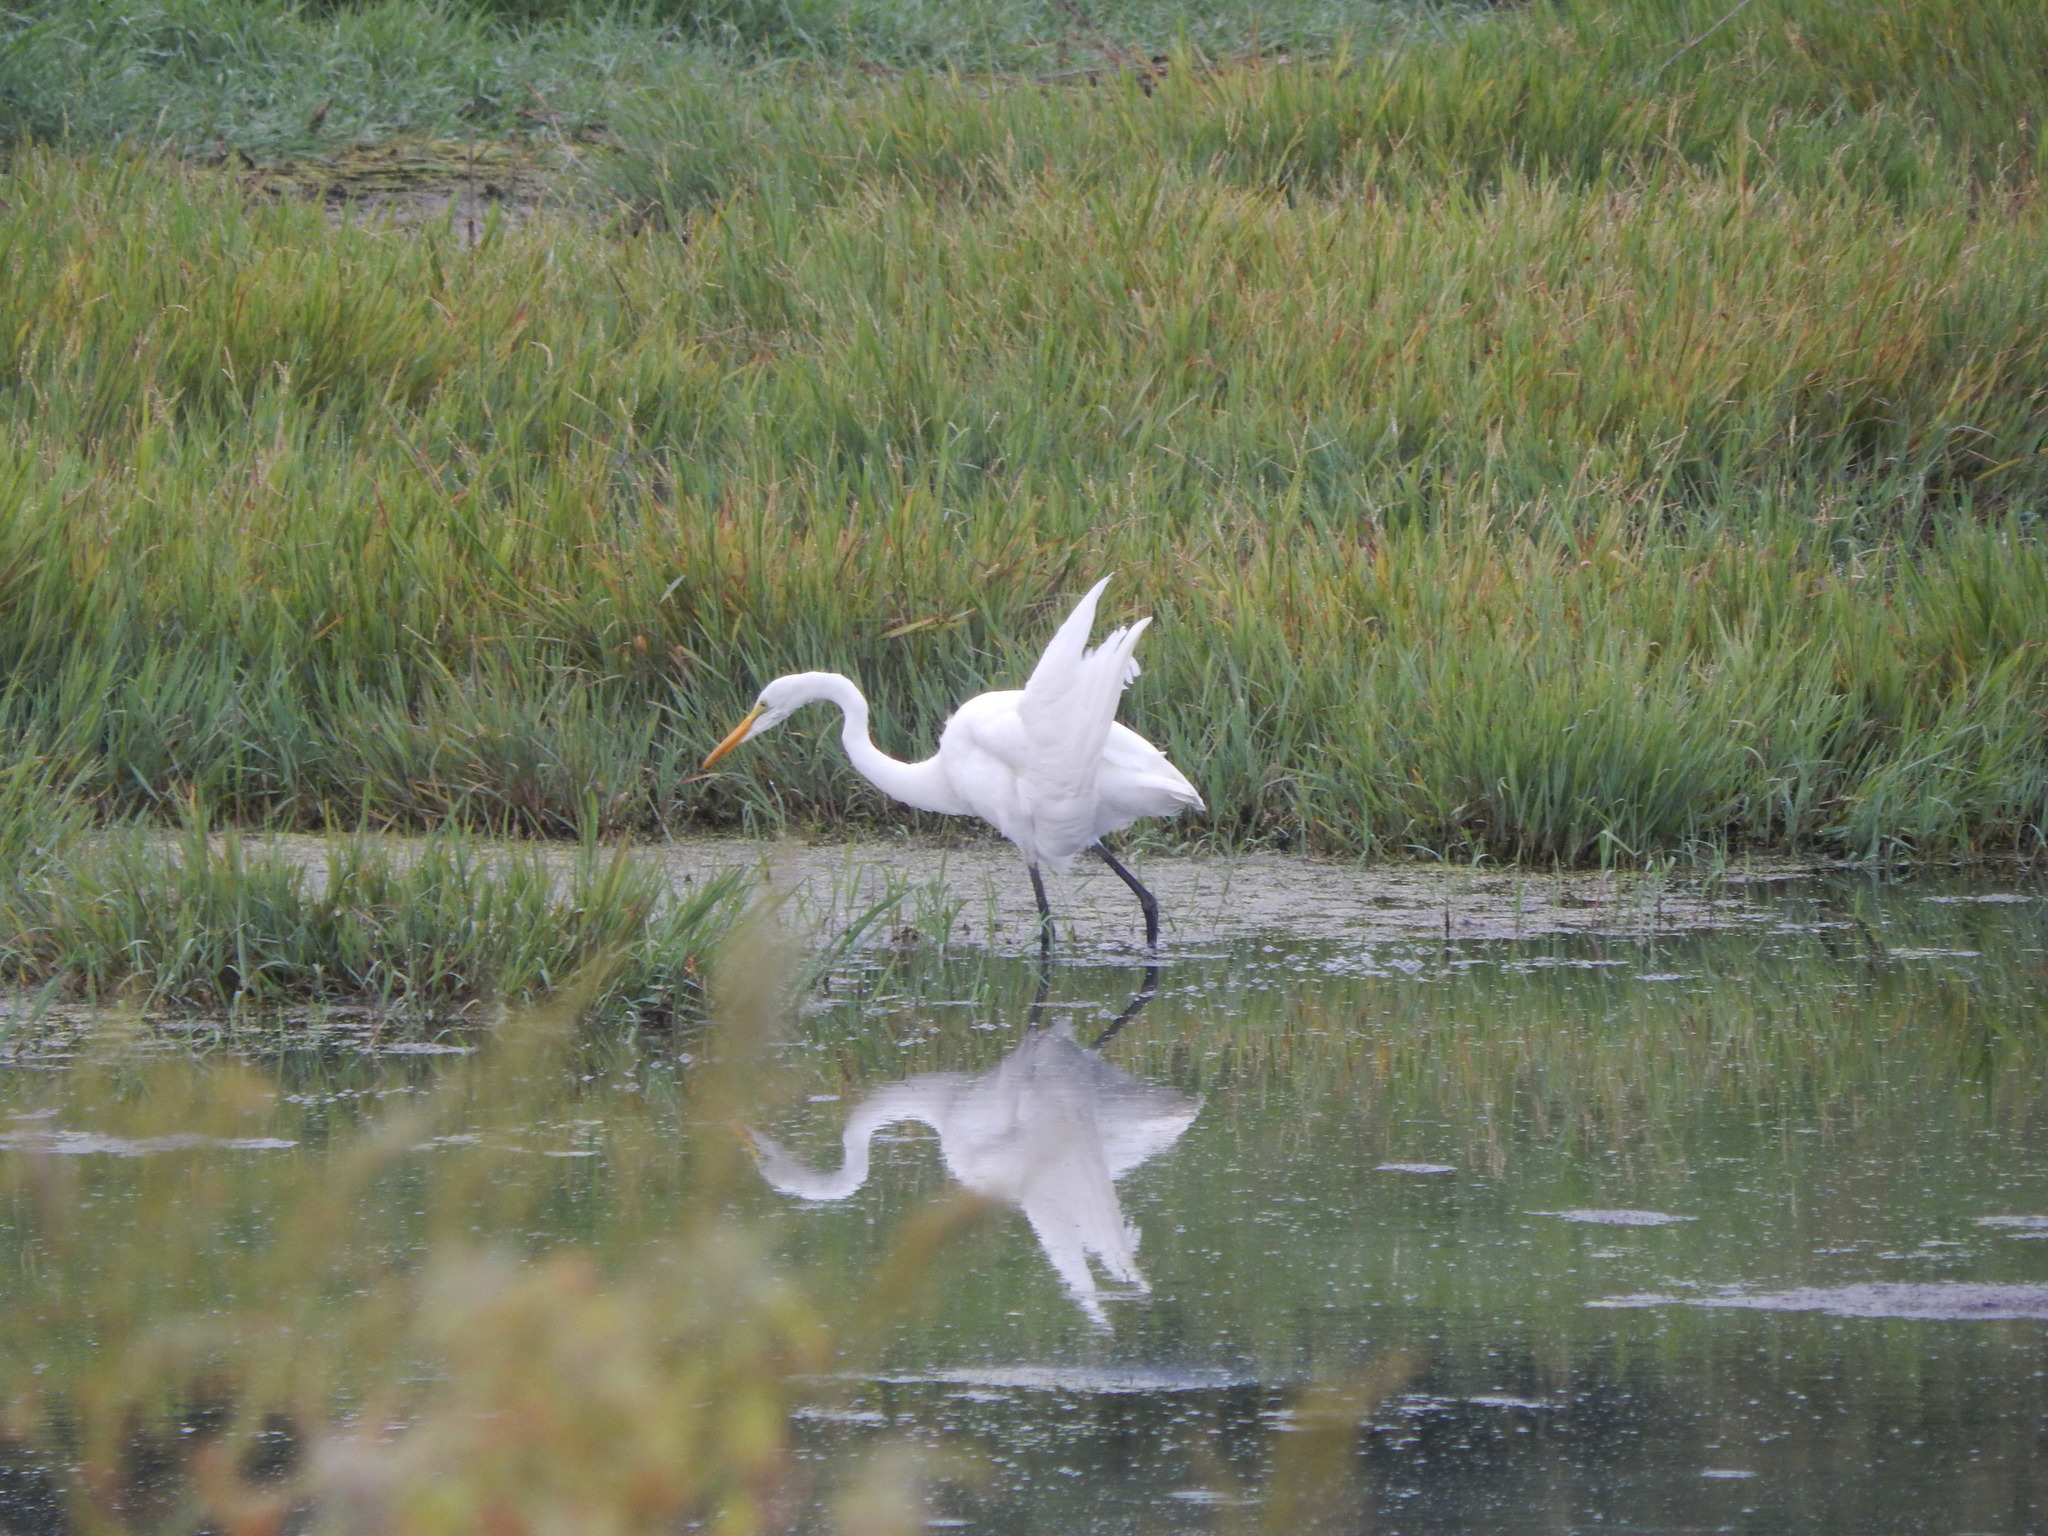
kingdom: Animalia
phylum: Chordata
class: Aves
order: Pelecaniformes
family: Ardeidae
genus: Ardea
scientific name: Ardea alba
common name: Great egret
